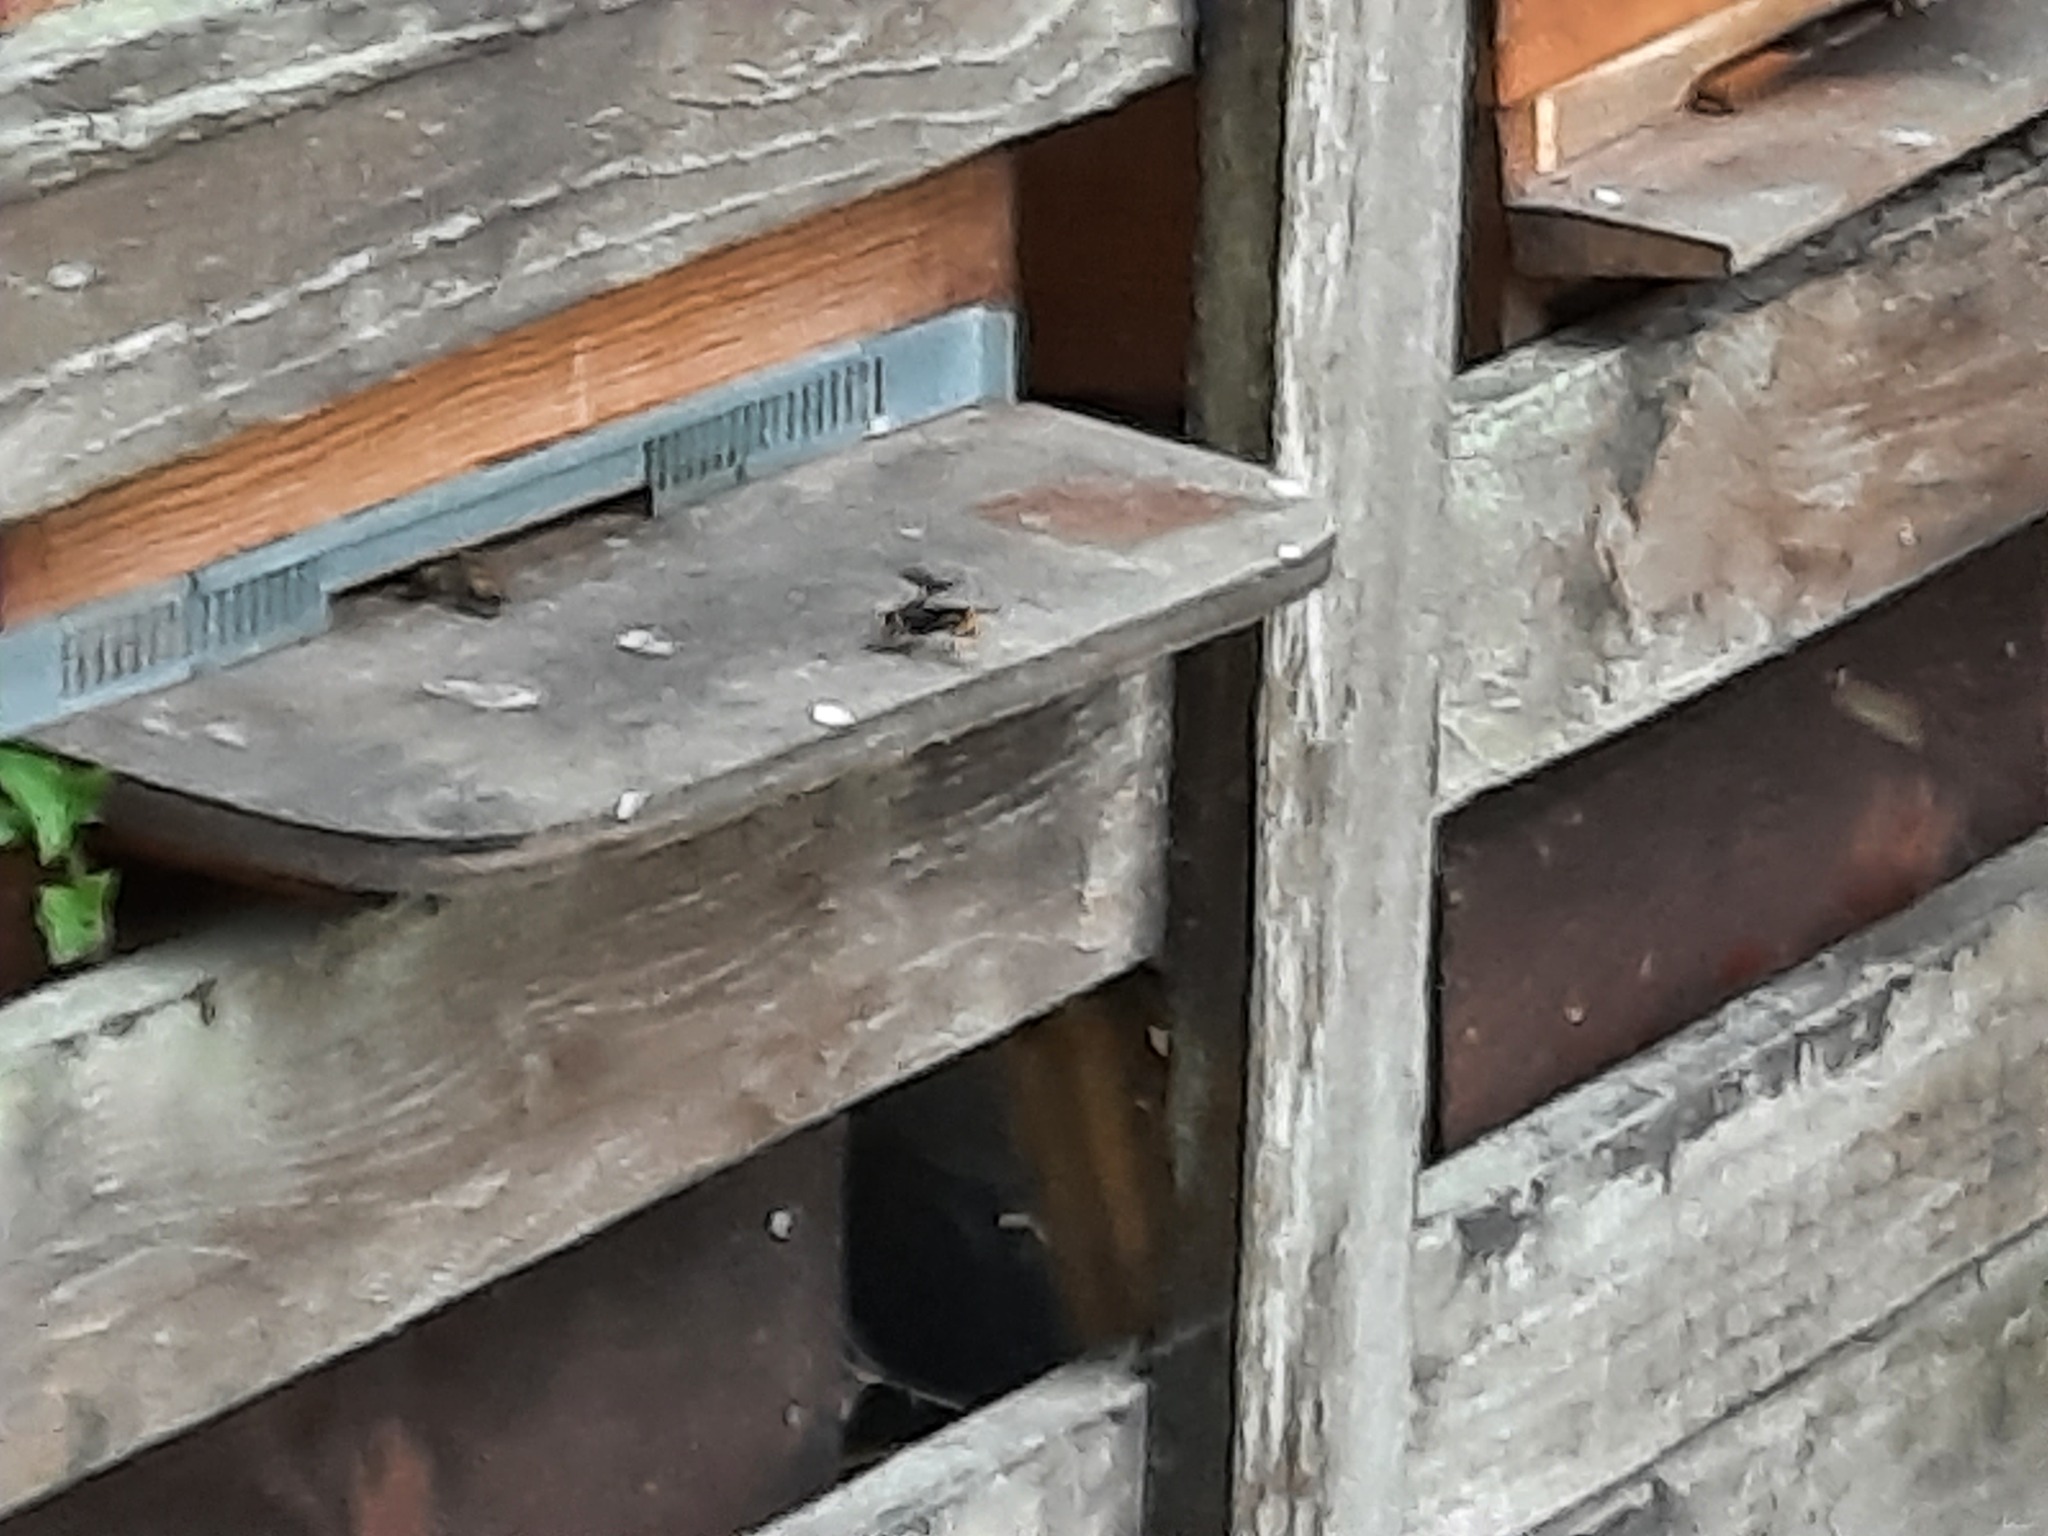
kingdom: Animalia
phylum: Arthropoda
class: Insecta
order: Hymenoptera
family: Vespidae
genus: Vespa
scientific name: Vespa velutina
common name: Asian hornet
